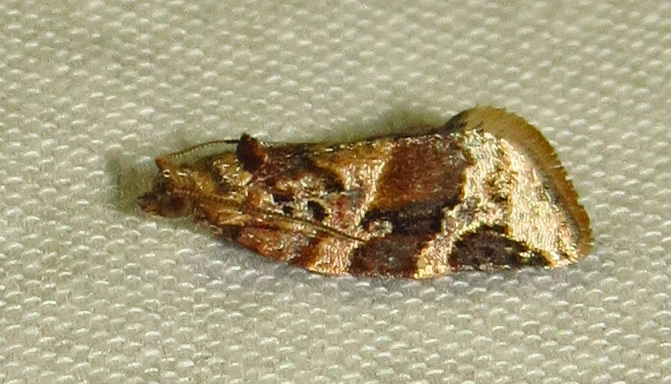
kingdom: Animalia
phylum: Arthropoda
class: Insecta
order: Lepidoptera
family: Tortricidae
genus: Argyrotaenia
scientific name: Argyrotaenia velutinana
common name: Red-banded leafroller moth
